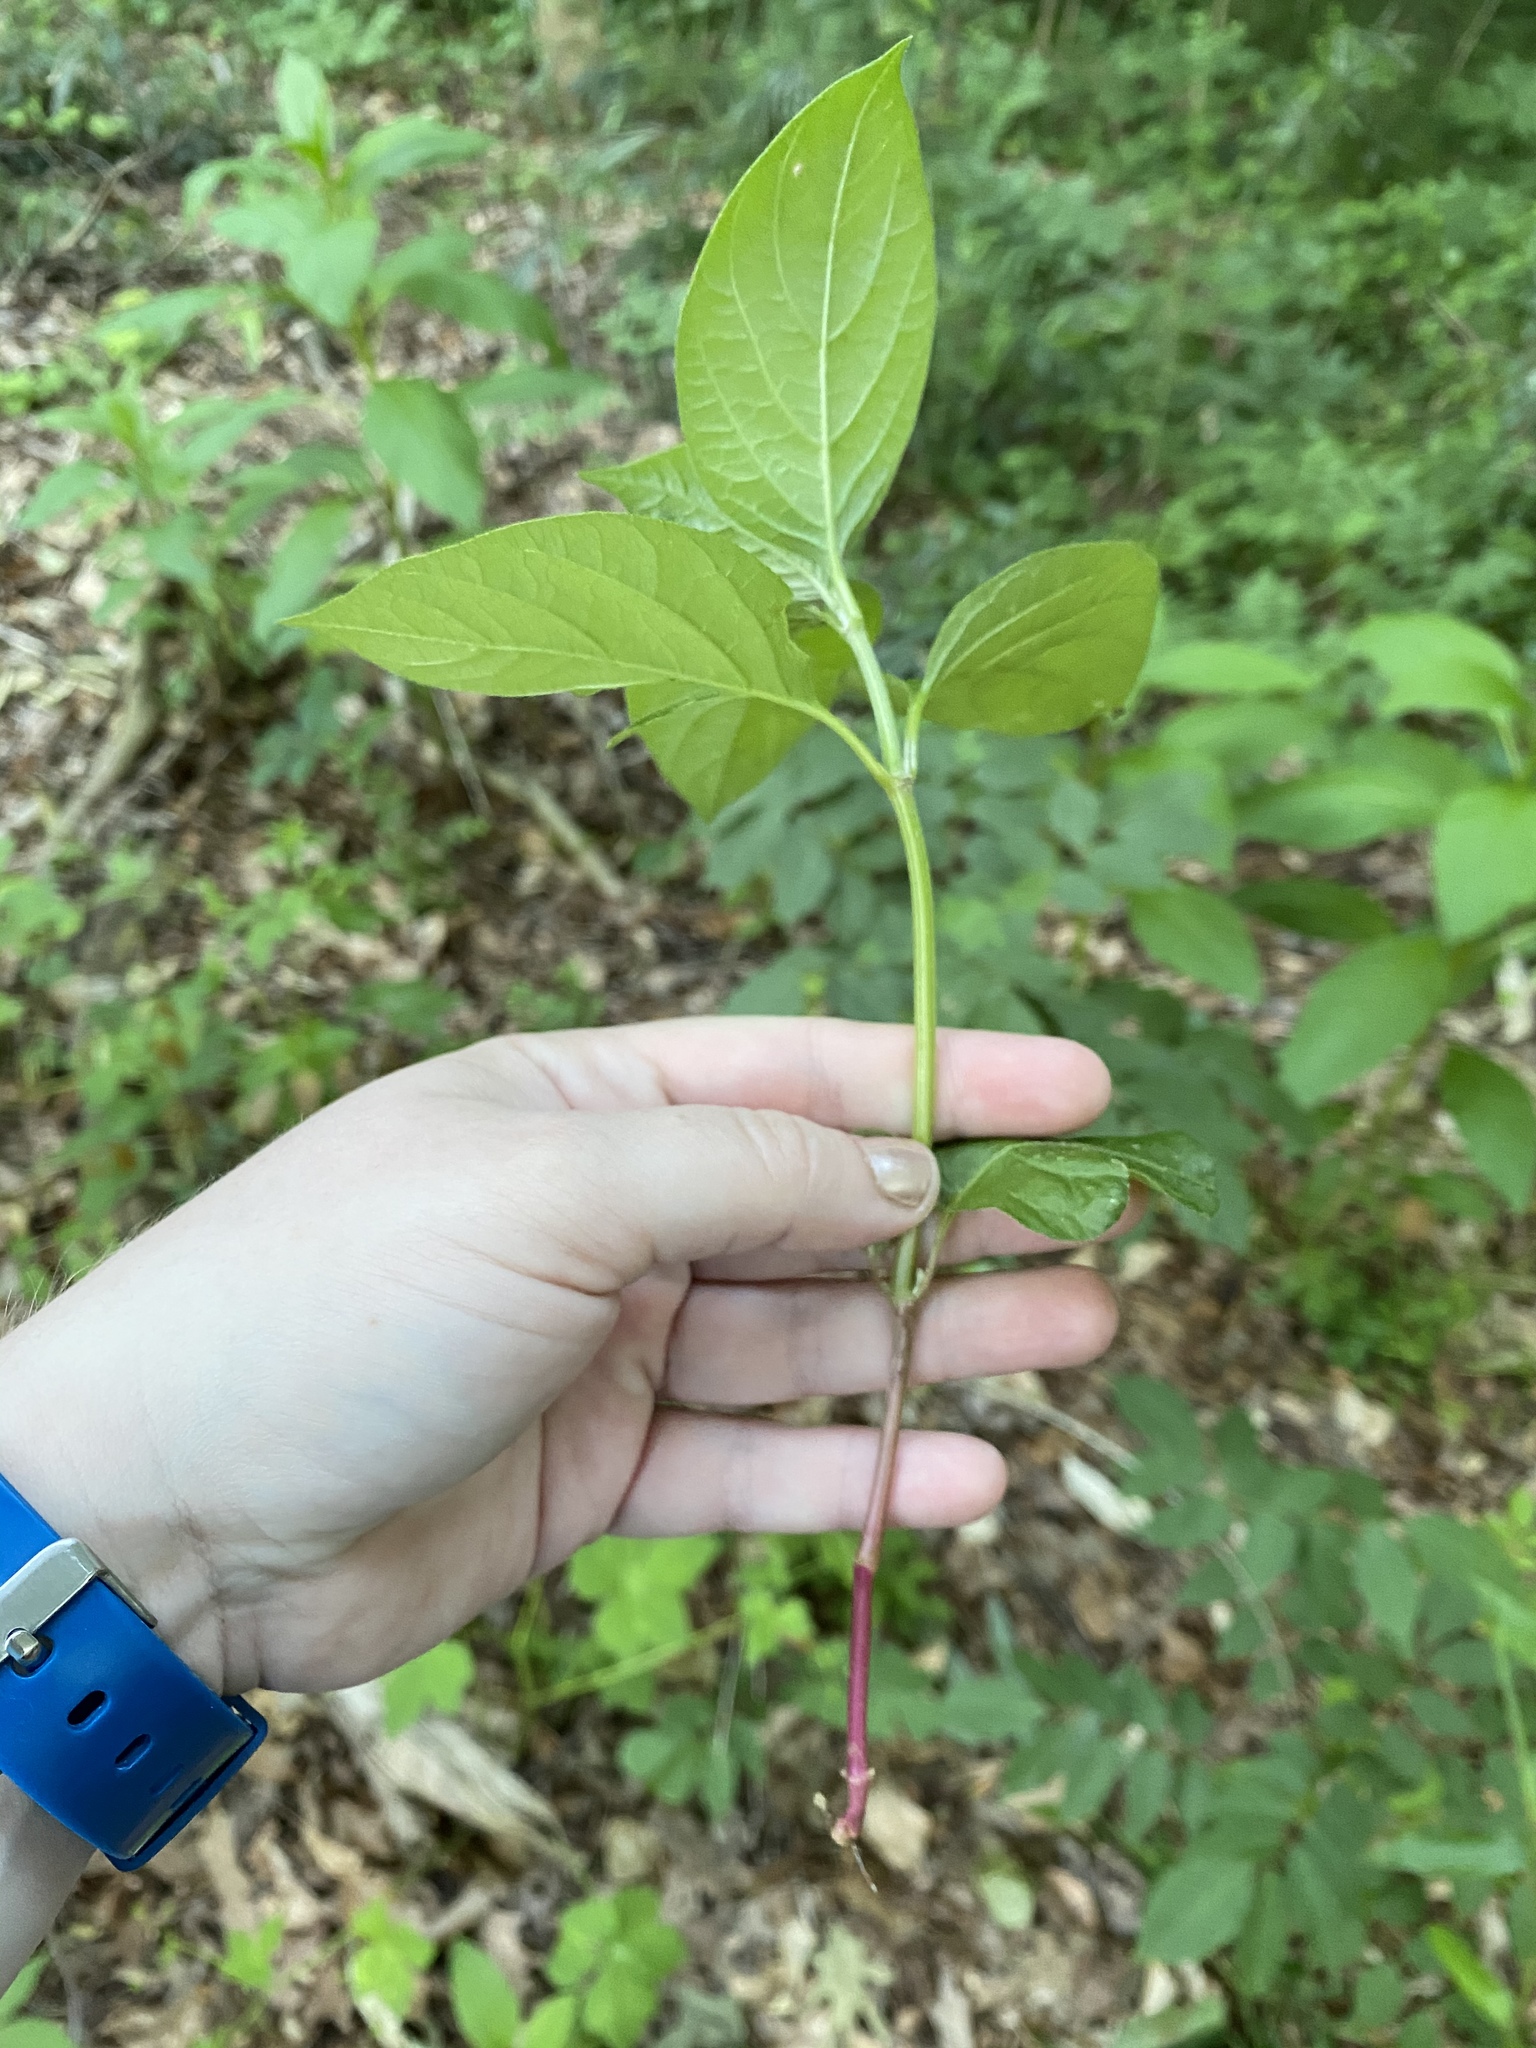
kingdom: Plantae
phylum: Tracheophyta
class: Magnoliopsida
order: Caryophyllales
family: Amaranthaceae
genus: Achyranthes
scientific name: Achyranthes bidentata
